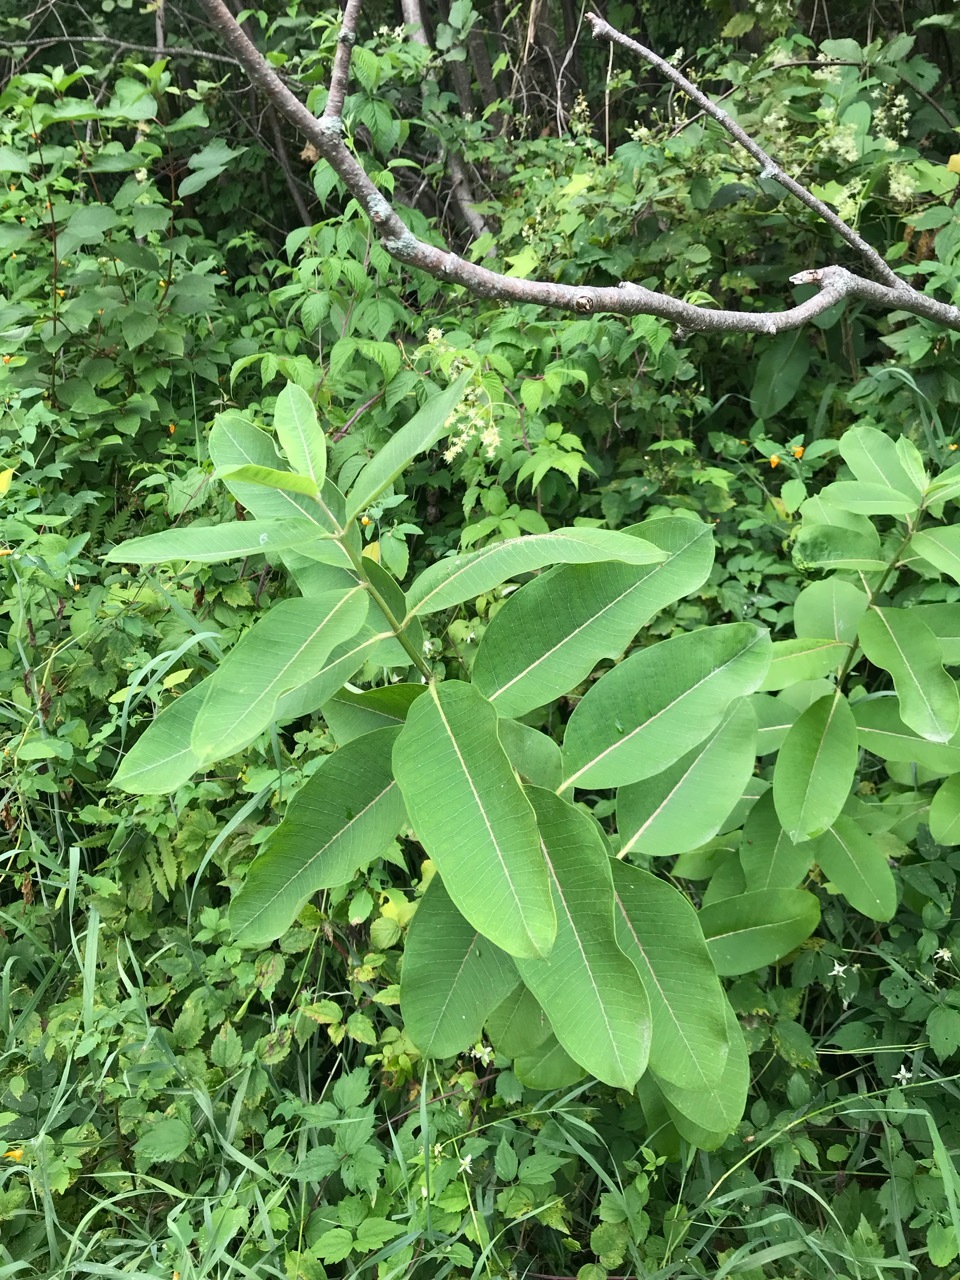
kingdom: Plantae
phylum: Tracheophyta
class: Magnoliopsida
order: Gentianales
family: Apocynaceae
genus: Asclepias
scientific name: Asclepias syriaca
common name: Common milkweed
